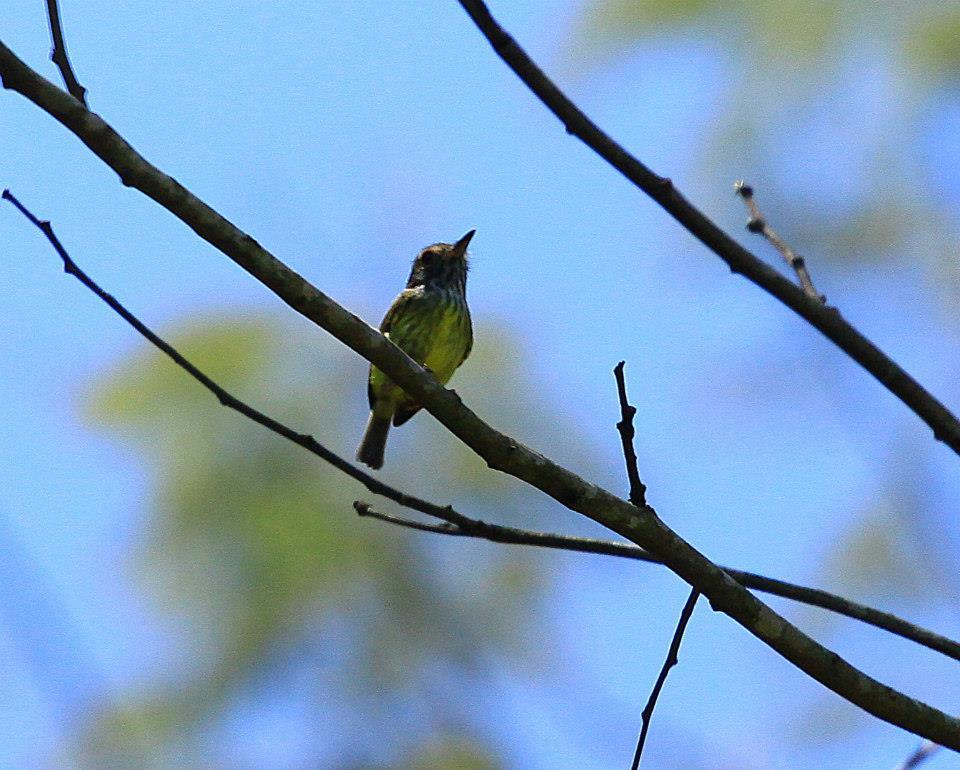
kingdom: Animalia
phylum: Chordata
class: Aves
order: Passeriformes
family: Tyrannidae
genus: Myiornis
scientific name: Myiornis auricularis
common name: Eared pygmy tyrant
